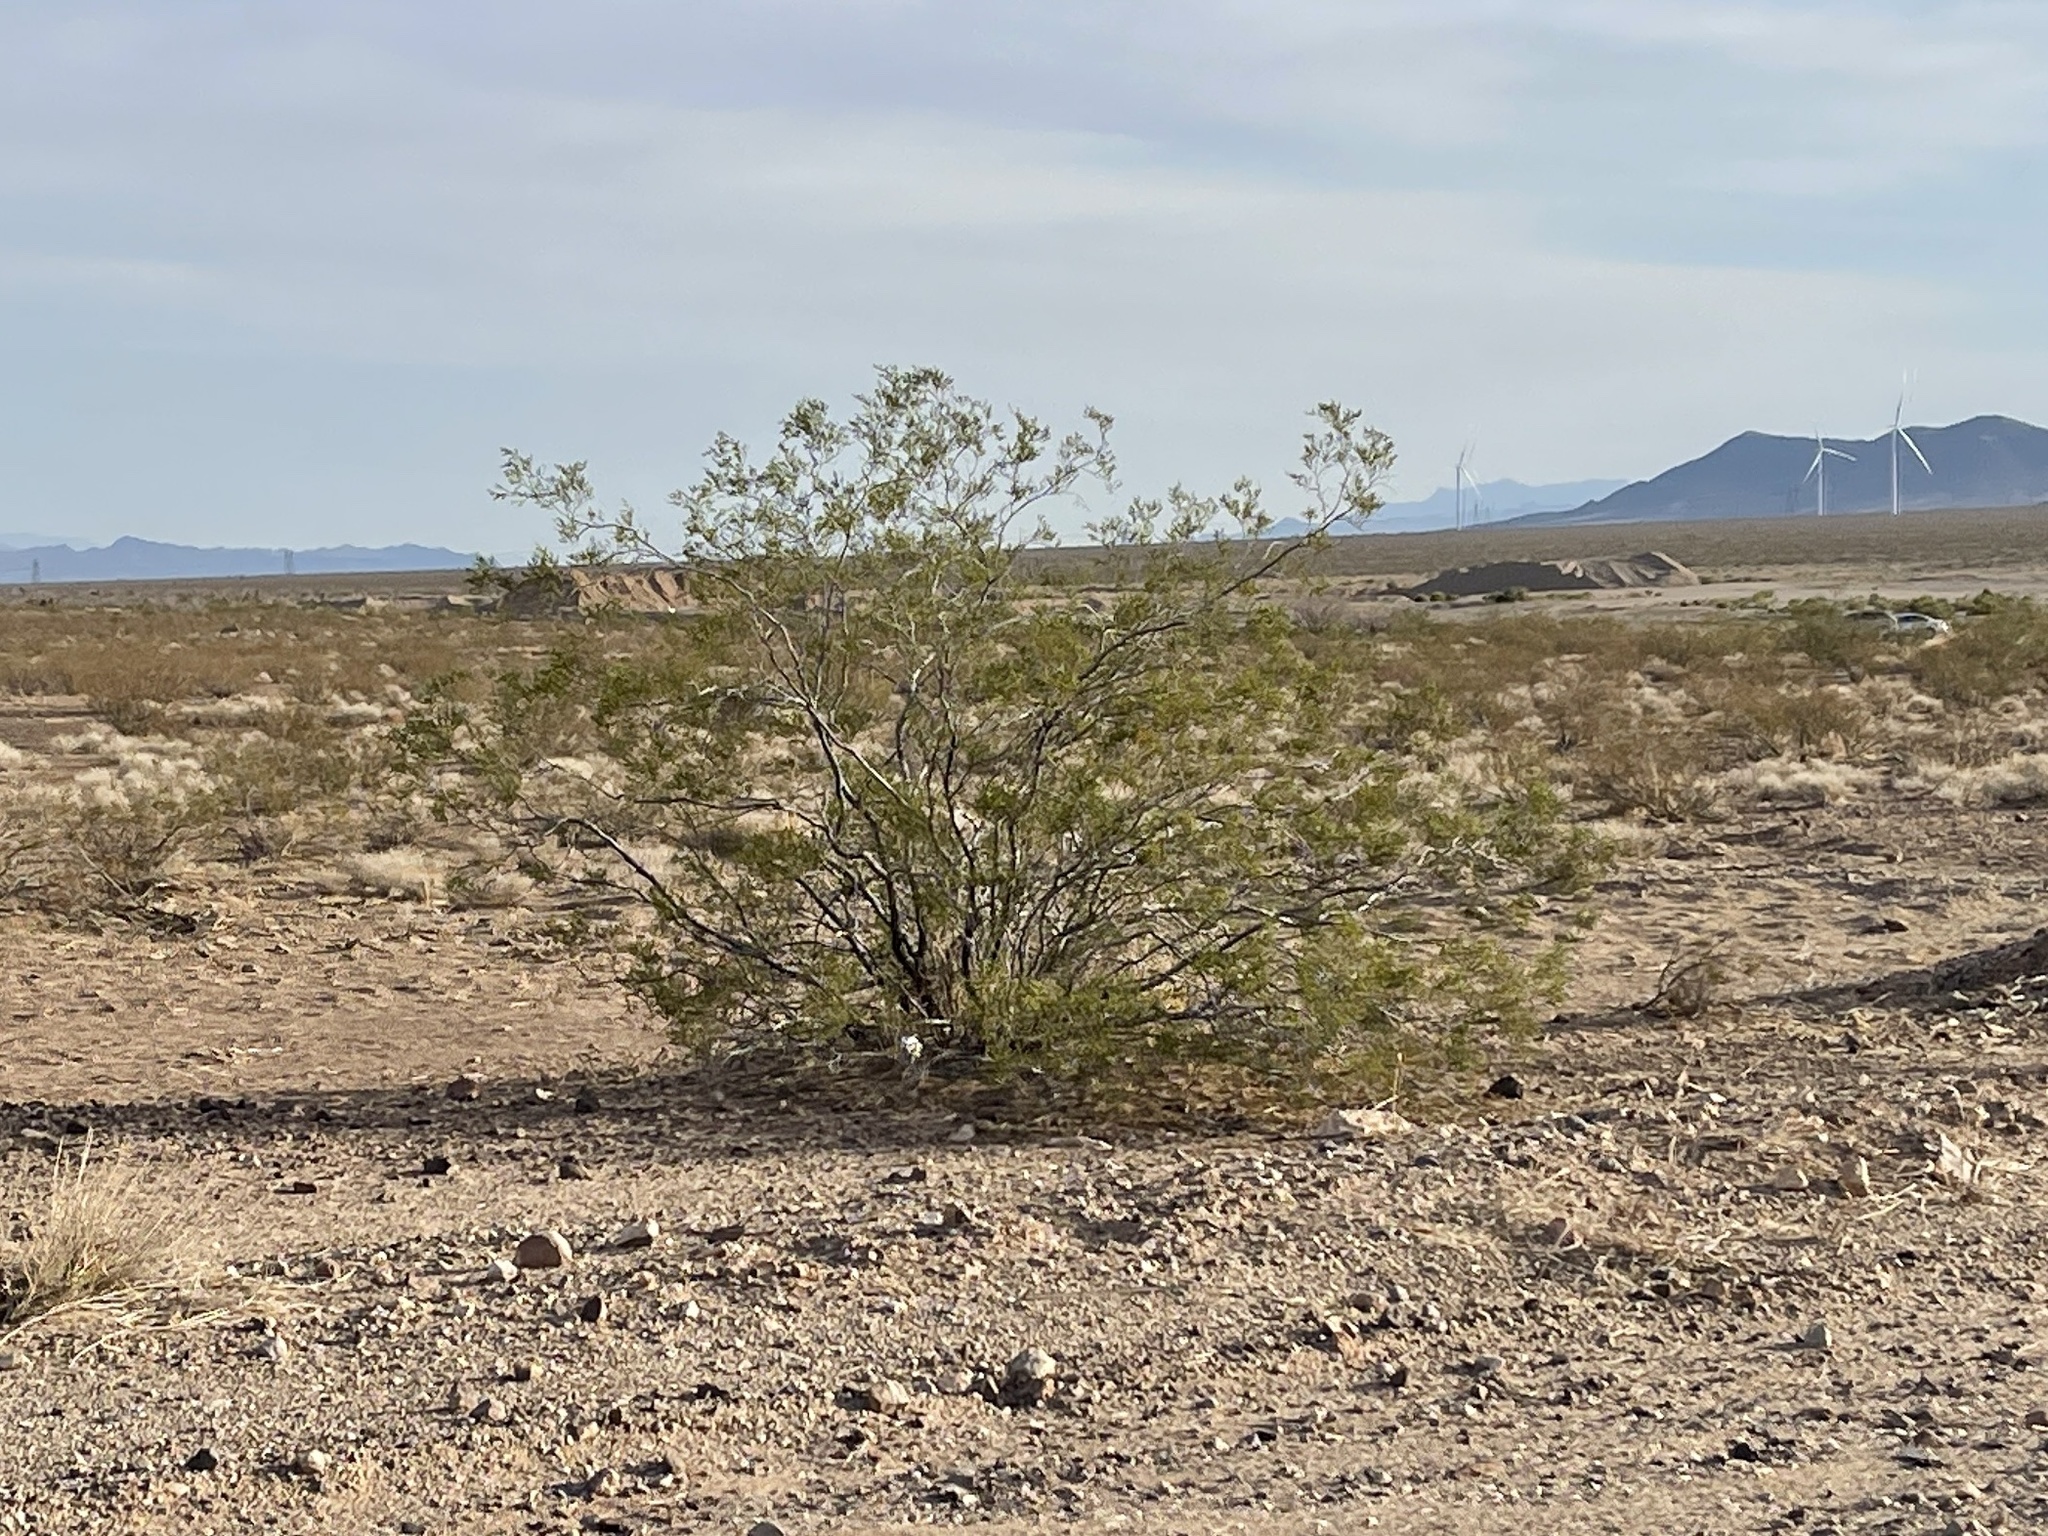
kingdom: Plantae
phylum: Tracheophyta
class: Magnoliopsida
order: Zygophyllales
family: Zygophyllaceae
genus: Larrea
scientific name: Larrea tridentata
